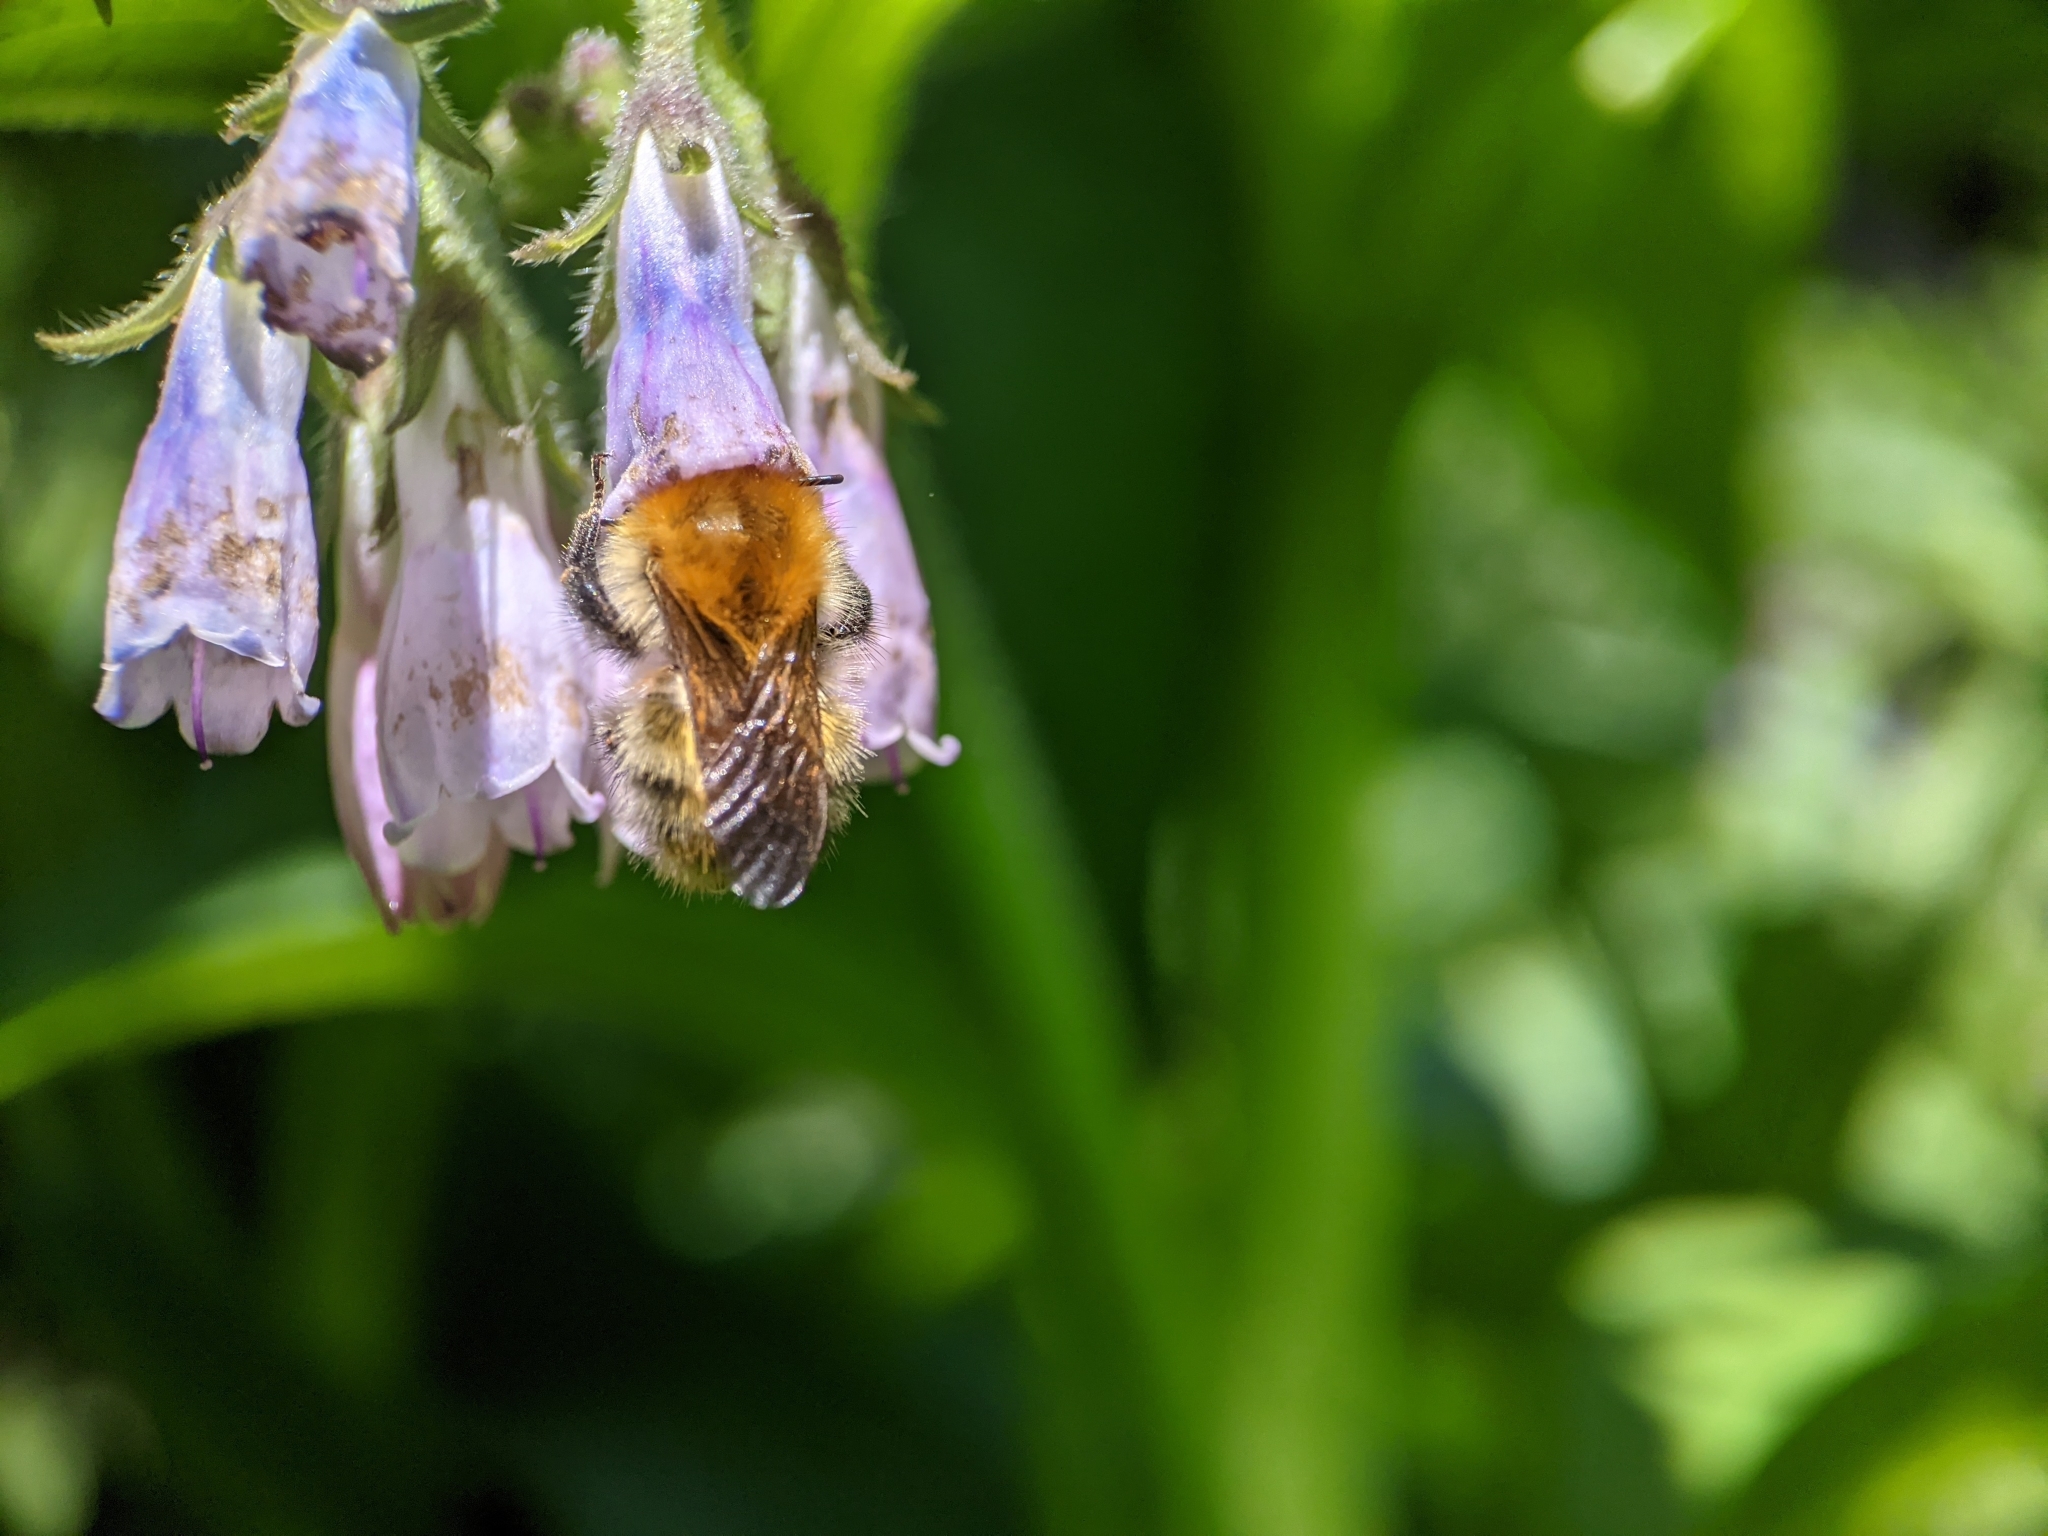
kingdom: Animalia
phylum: Arthropoda
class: Insecta
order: Hymenoptera
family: Apidae
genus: Bombus
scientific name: Bombus pascuorum
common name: Common carder bee
